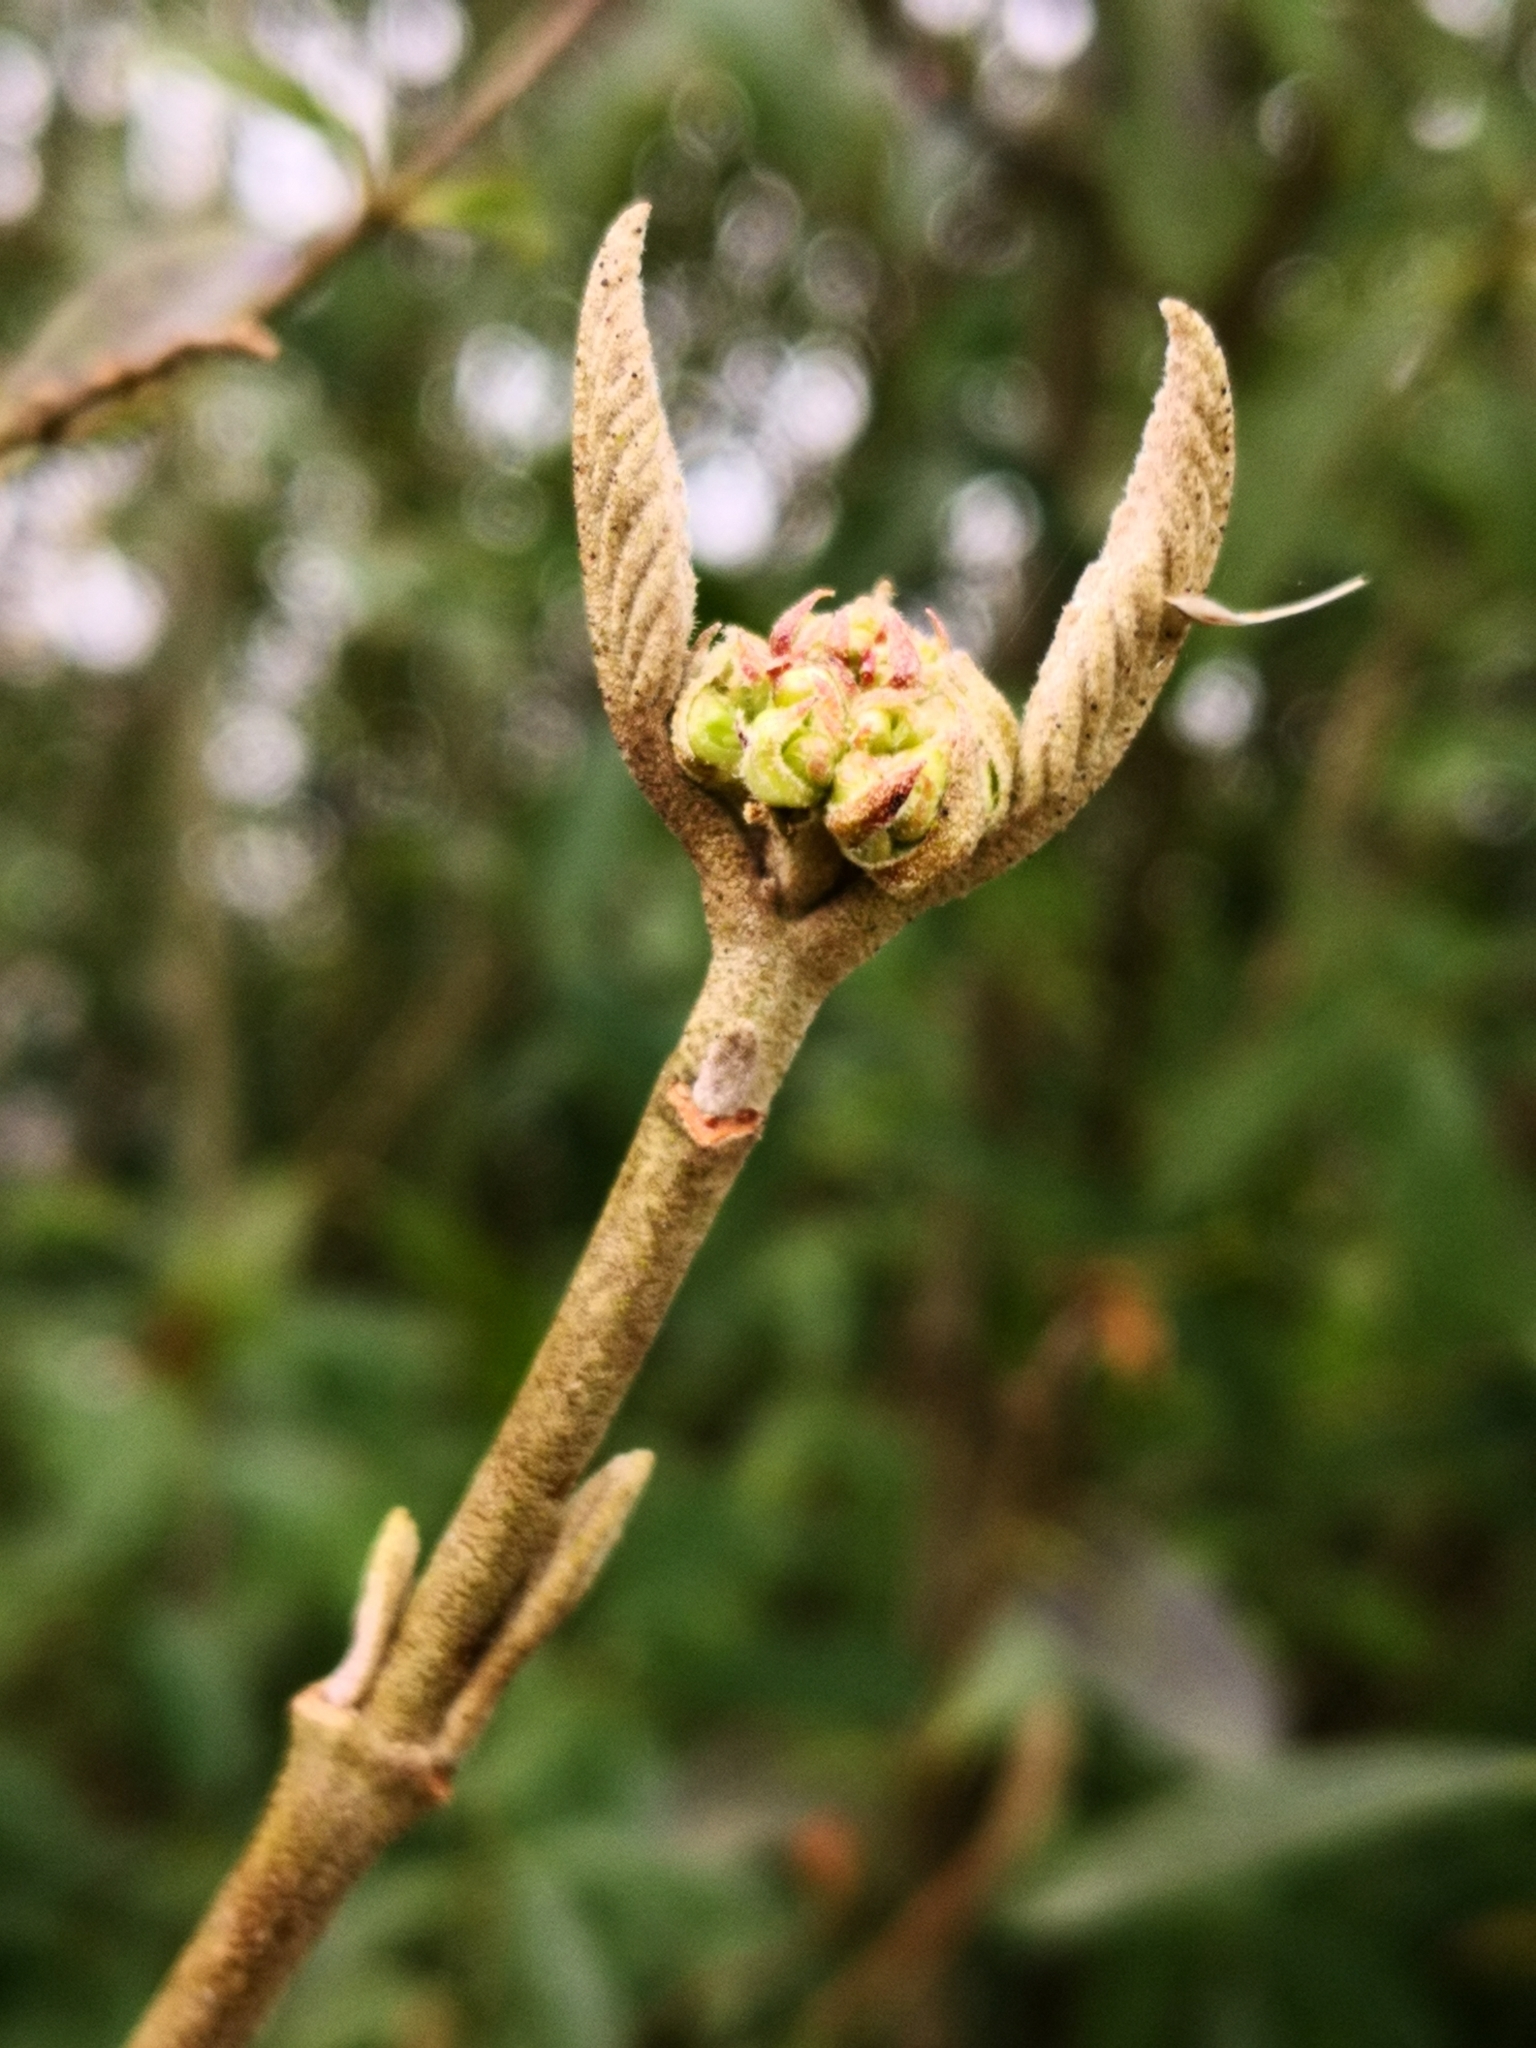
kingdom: Plantae
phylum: Tracheophyta
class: Magnoliopsida
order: Dipsacales
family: Viburnaceae
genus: Viburnum
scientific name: Viburnum lantana
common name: Wayfaring tree
